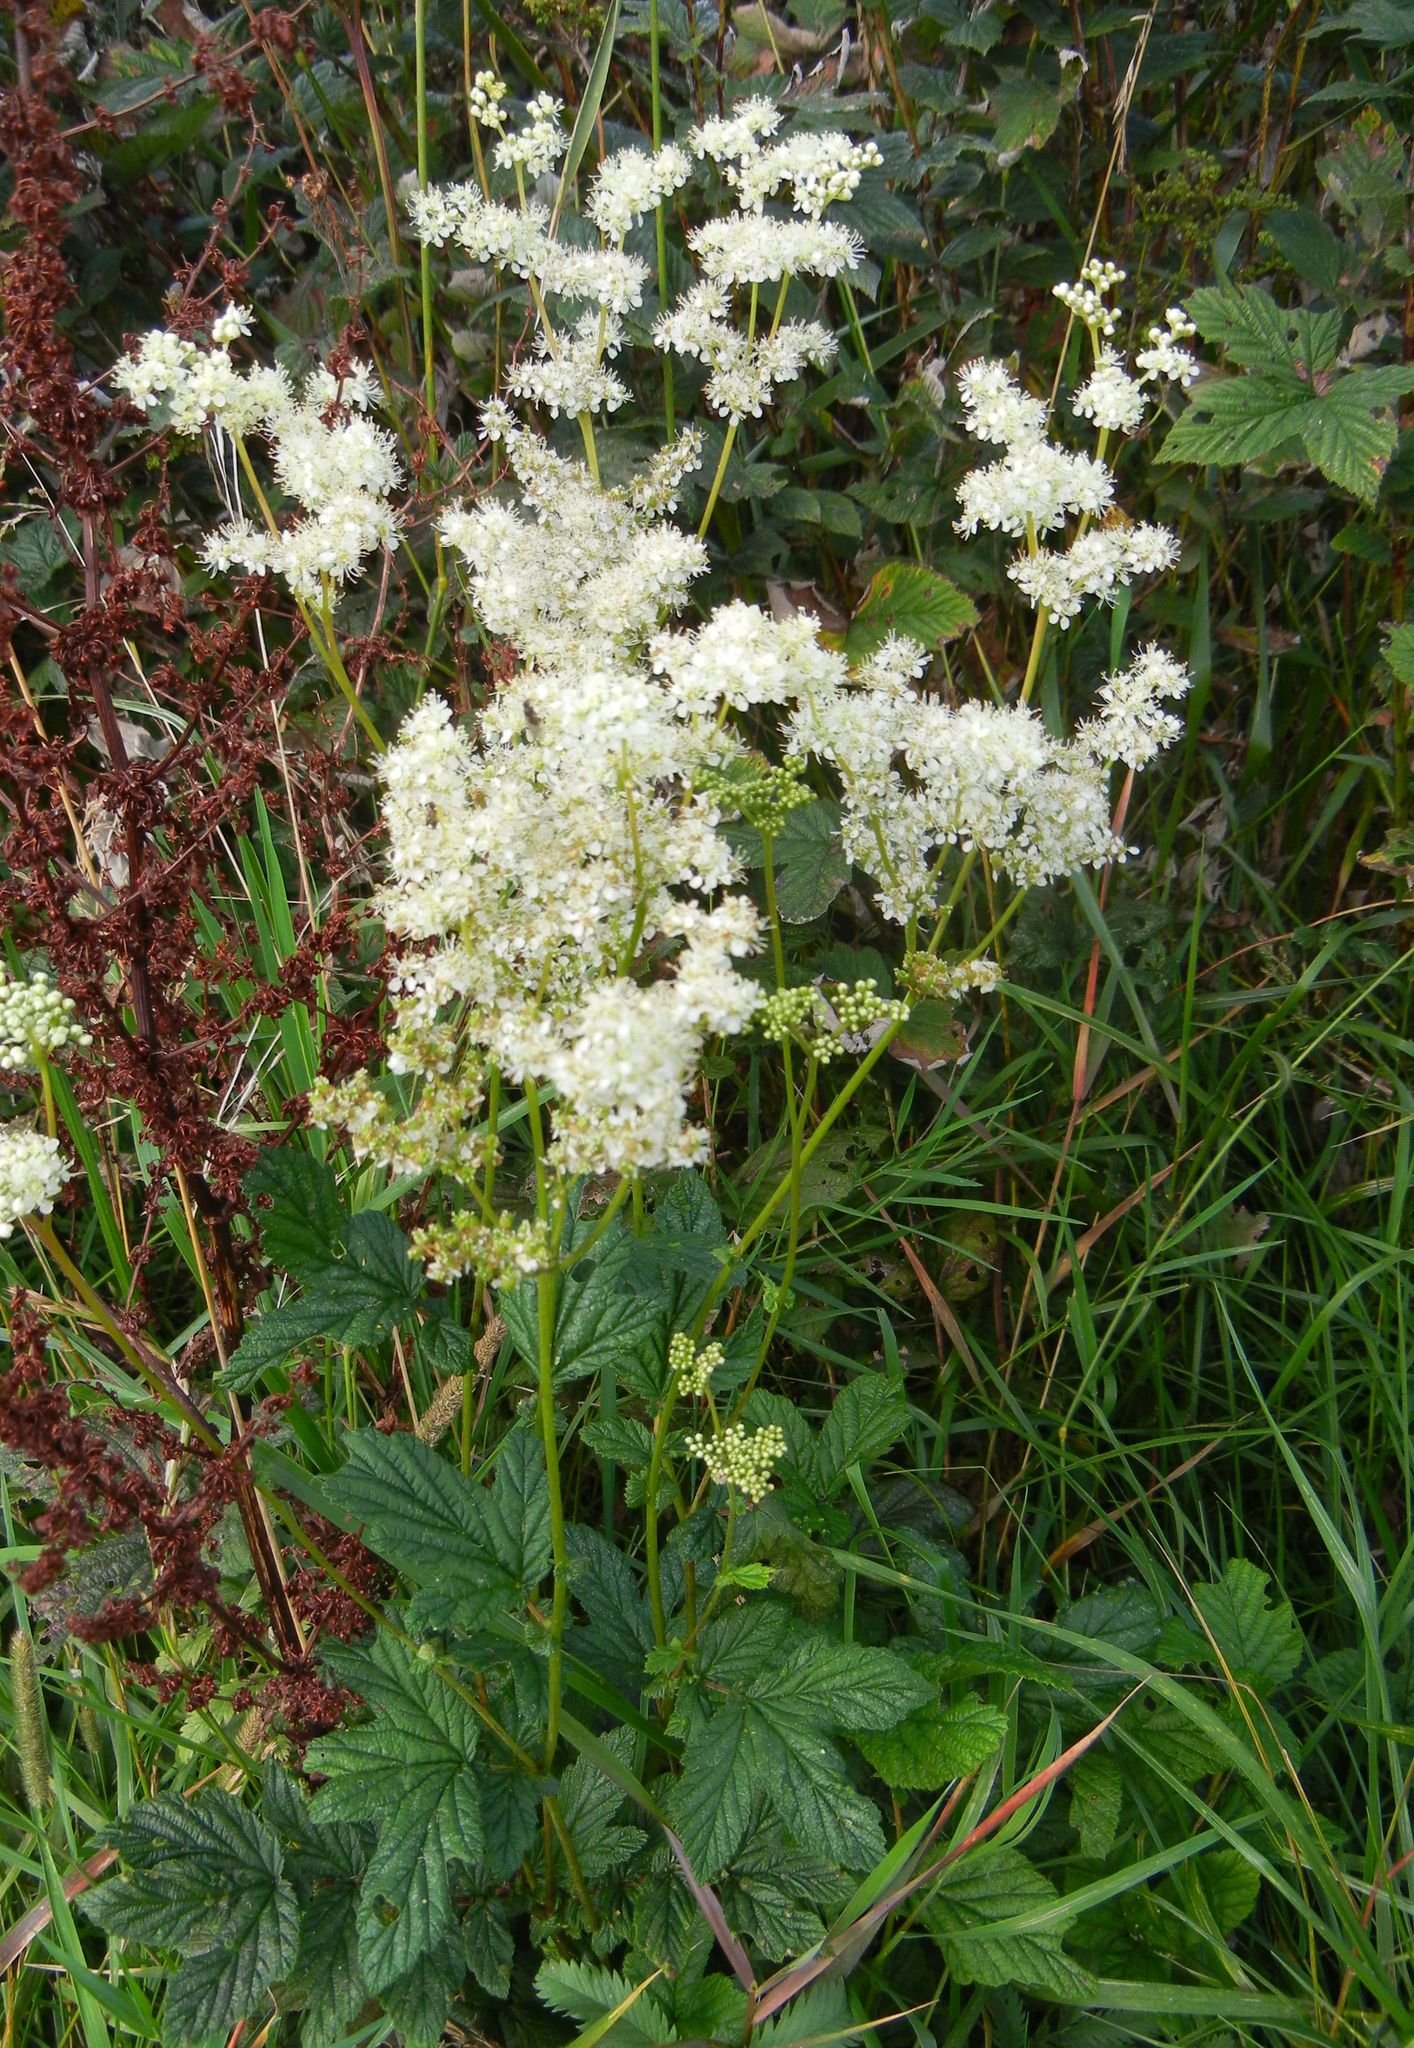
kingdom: Plantae
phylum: Tracheophyta
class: Magnoliopsida
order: Rosales
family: Rosaceae
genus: Filipendula
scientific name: Filipendula ulmaria
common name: Meadowsweet
